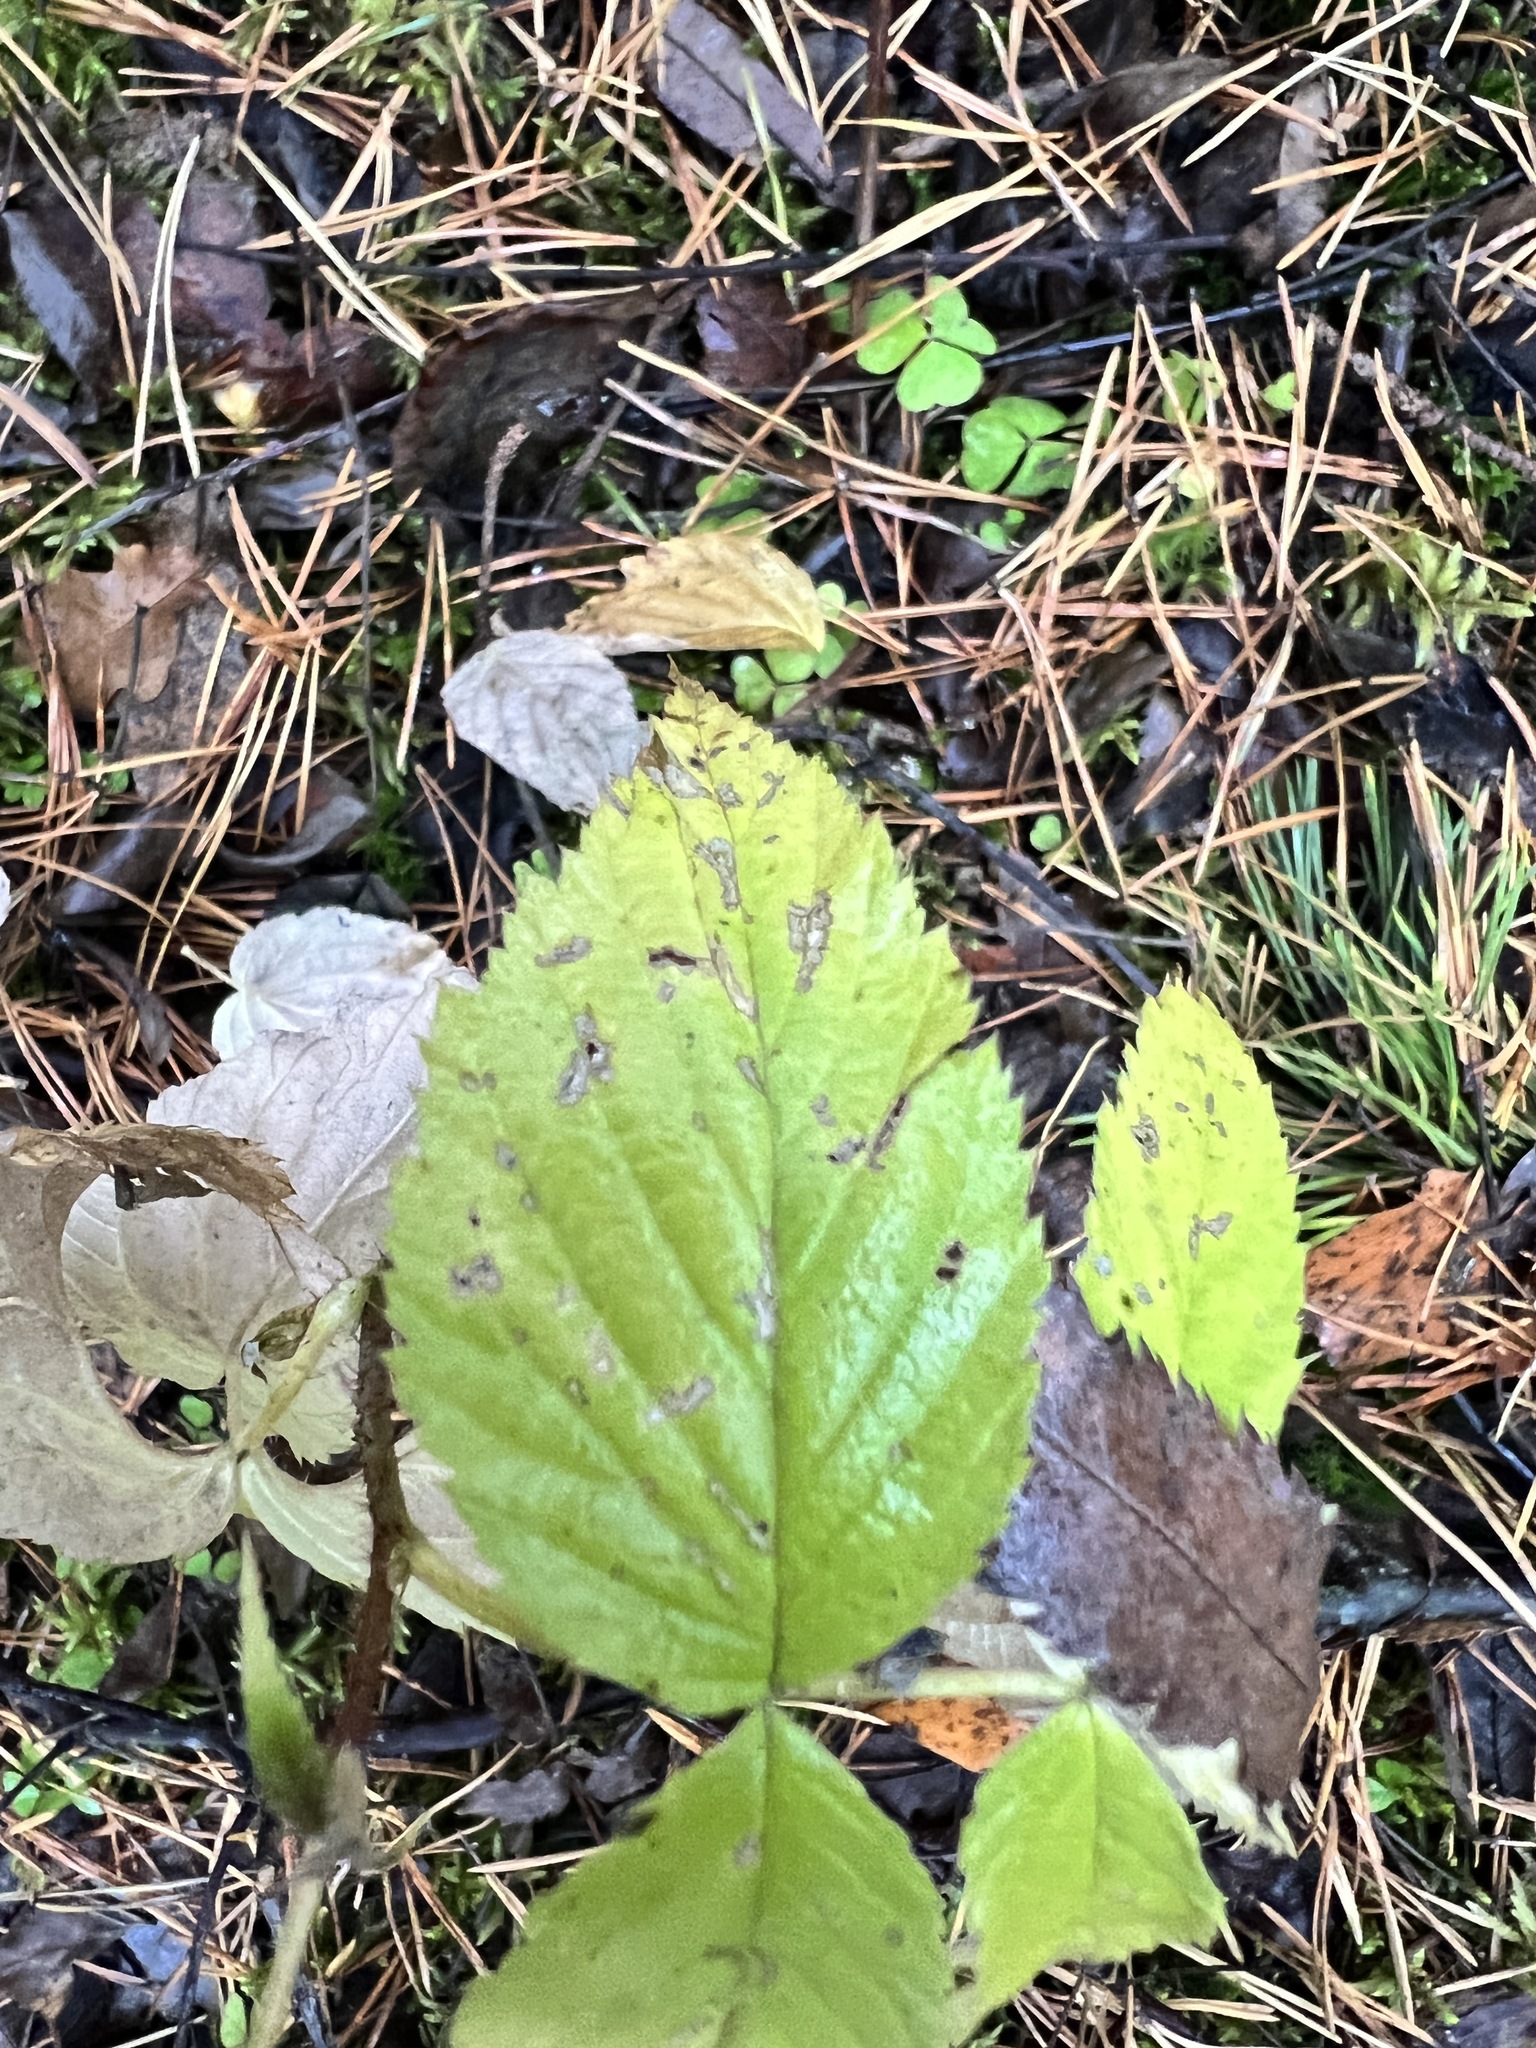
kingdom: Plantae
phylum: Tracheophyta
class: Magnoliopsida
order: Rosales
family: Rosaceae
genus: Rubus
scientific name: Rubus idaeus
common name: Raspberry
